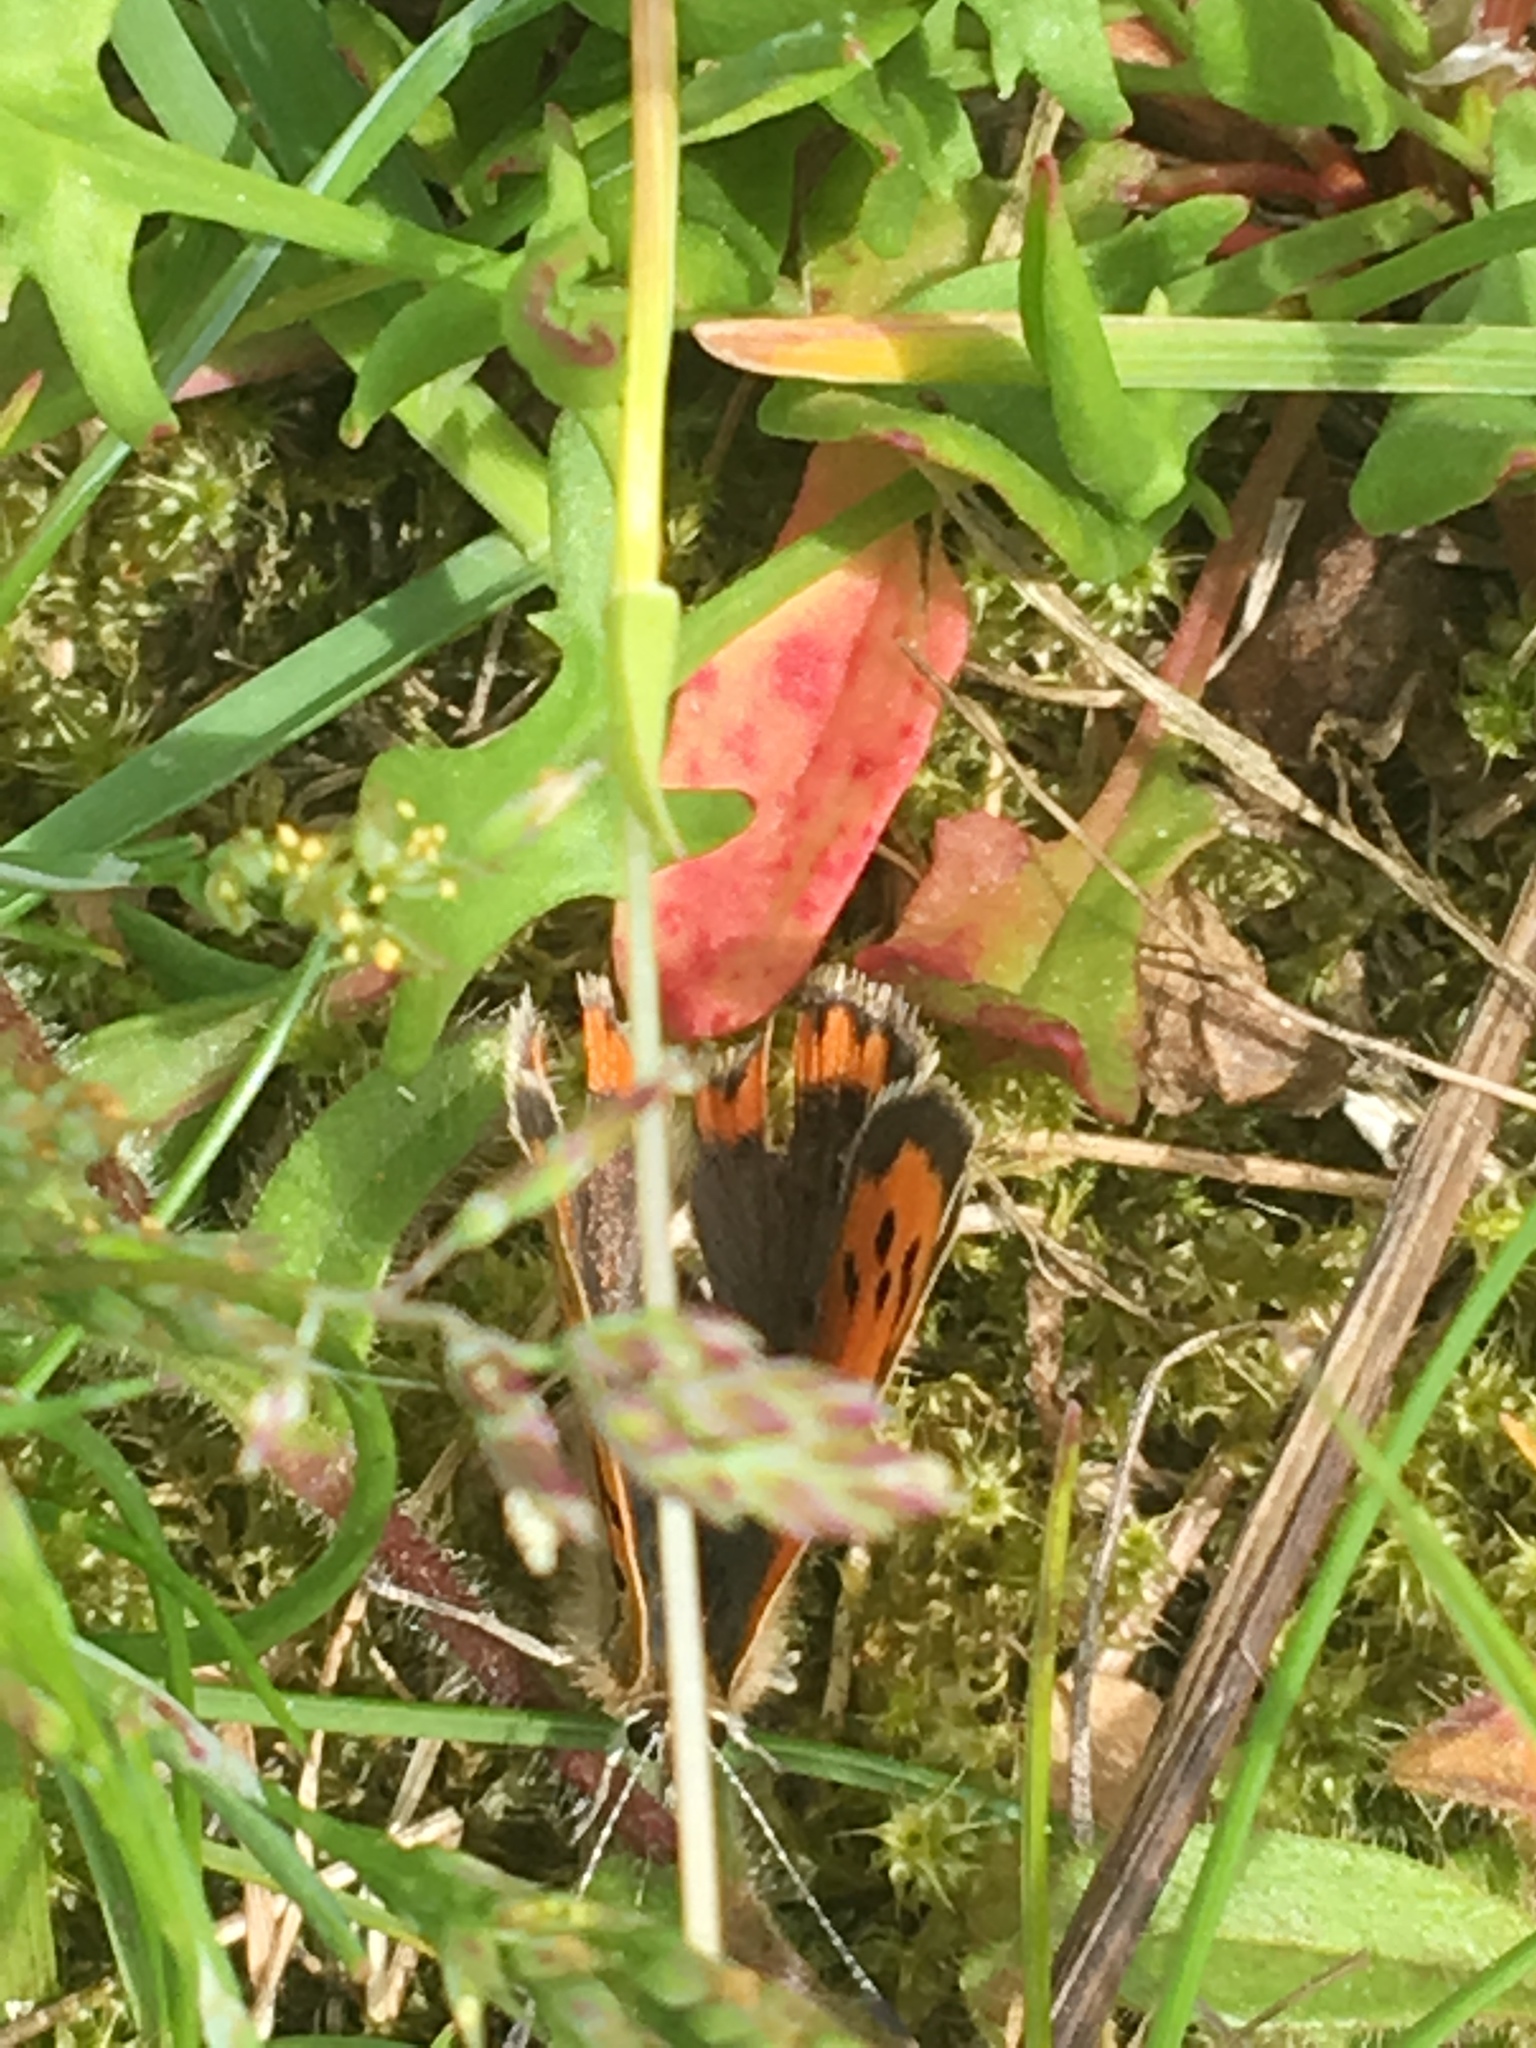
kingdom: Animalia
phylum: Arthropoda
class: Insecta
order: Lepidoptera
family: Lycaenidae
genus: Lycaena
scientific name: Lycaena phlaeas
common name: Small copper
